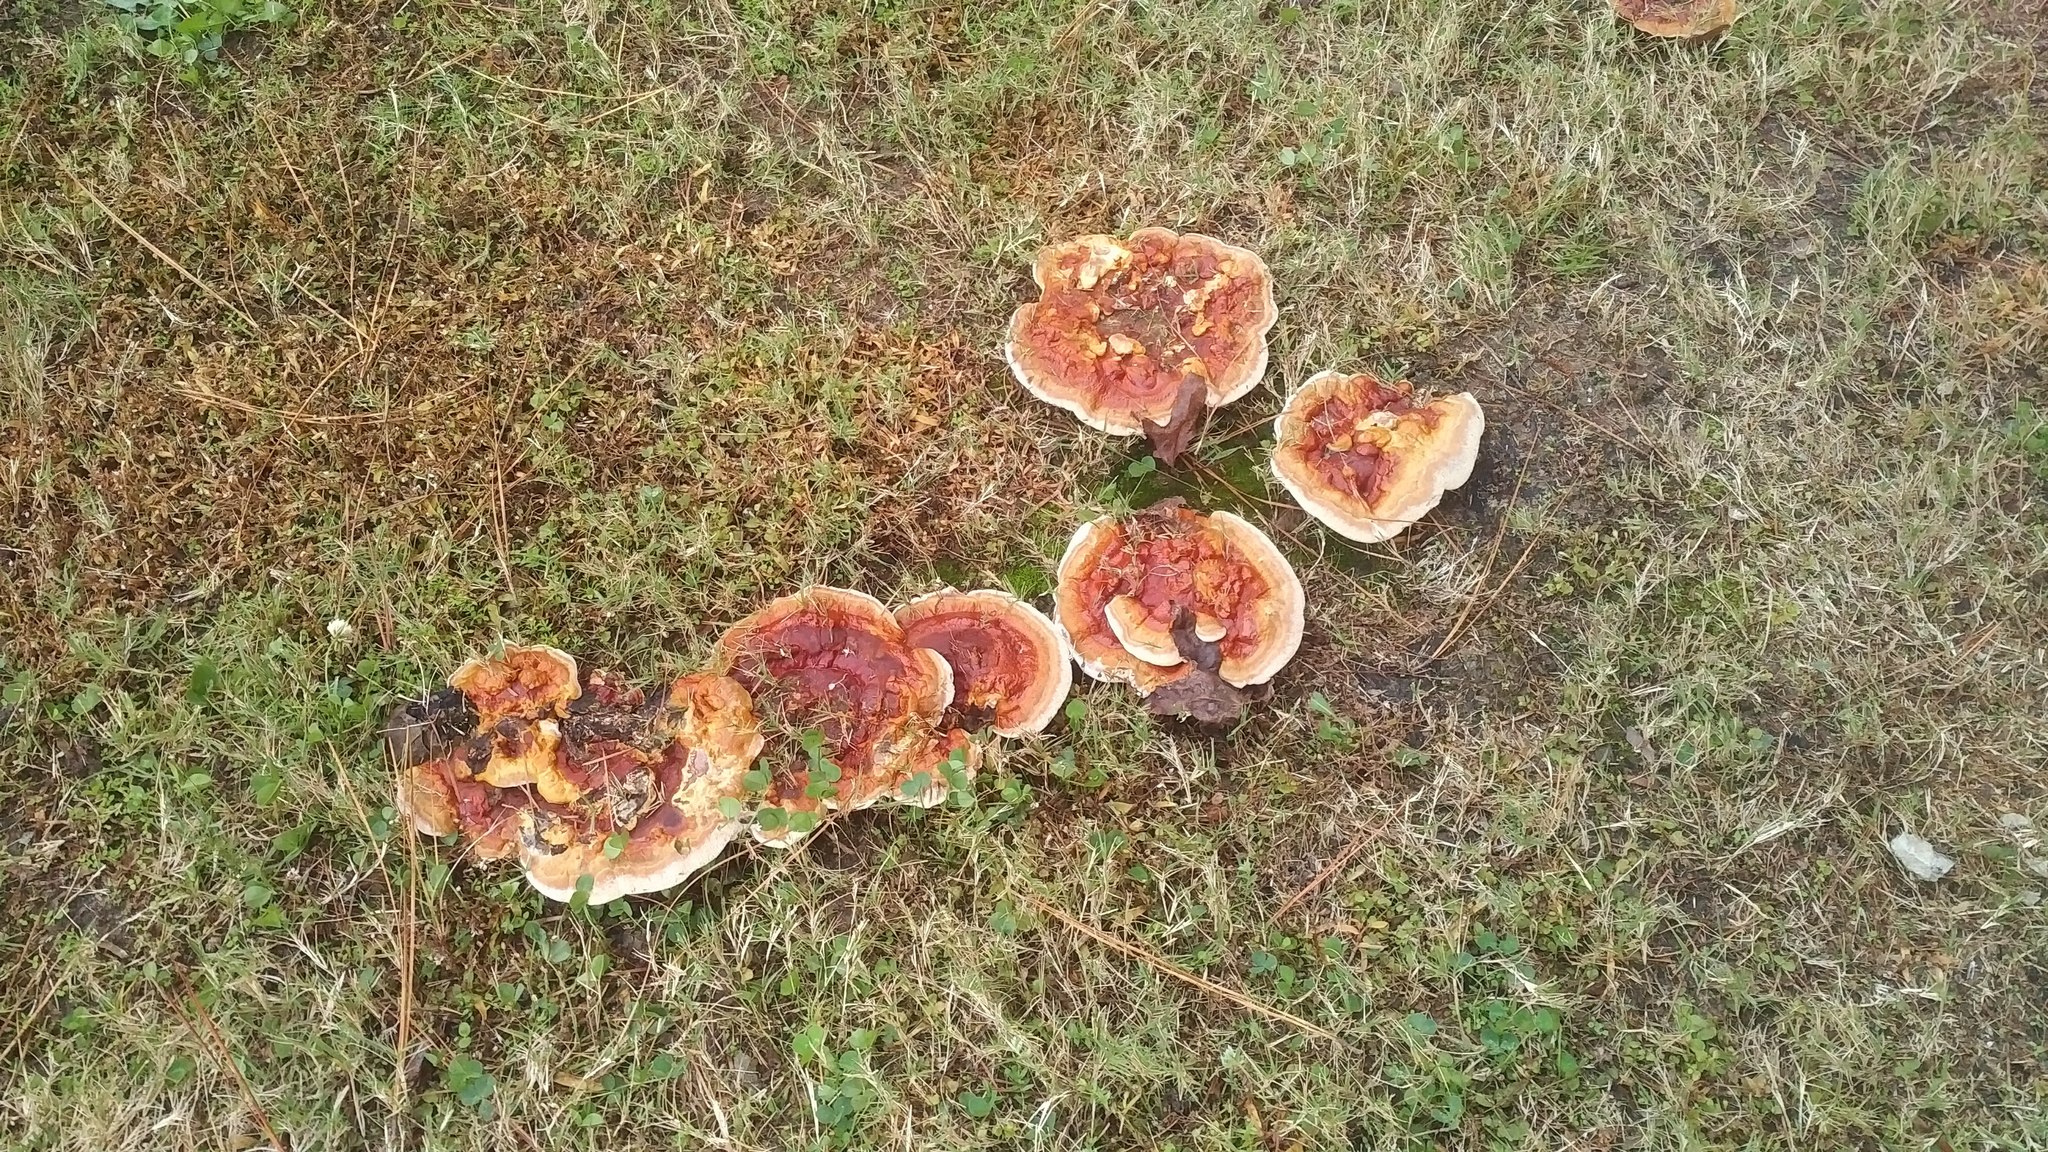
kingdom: Fungi
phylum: Basidiomycota
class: Agaricomycetes
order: Polyporales
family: Polyporaceae
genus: Ganoderma
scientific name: Ganoderma resinaceum
